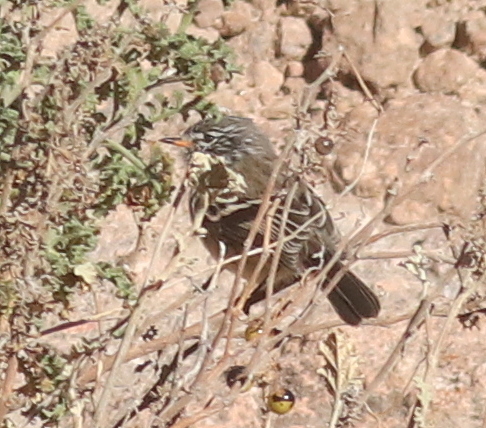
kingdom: Animalia
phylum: Chordata
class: Aves
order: Passeriformes
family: Tyrannidae
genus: Anairetes
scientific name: Anairetes flavirostris
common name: Yellow-billed tit-tyrant
